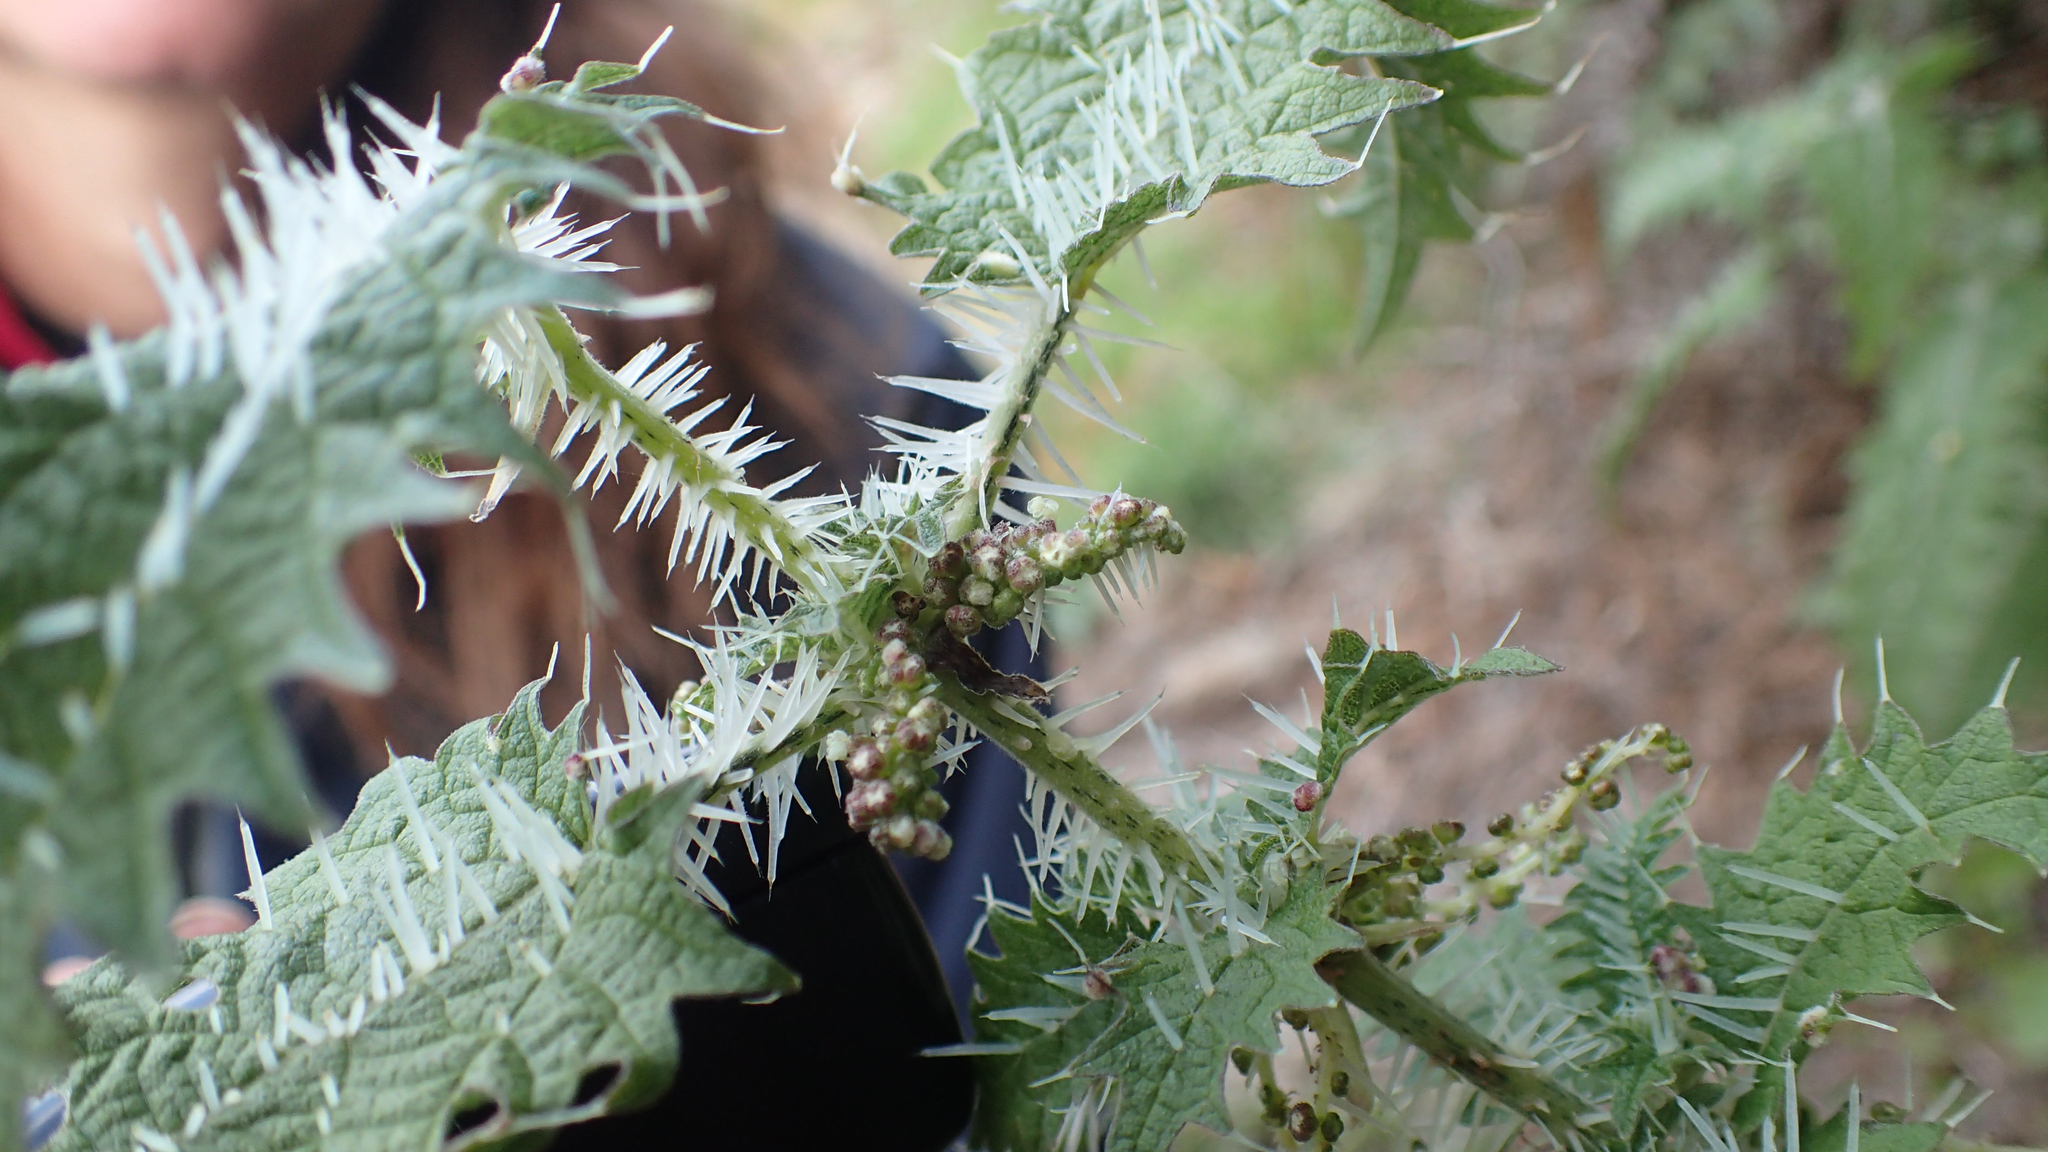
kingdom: Plantae
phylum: Tracheophyta
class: Magnoliopsida
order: Rosales
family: Urticaceae
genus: Urtica
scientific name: Urtica ferox
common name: Tree nettle
